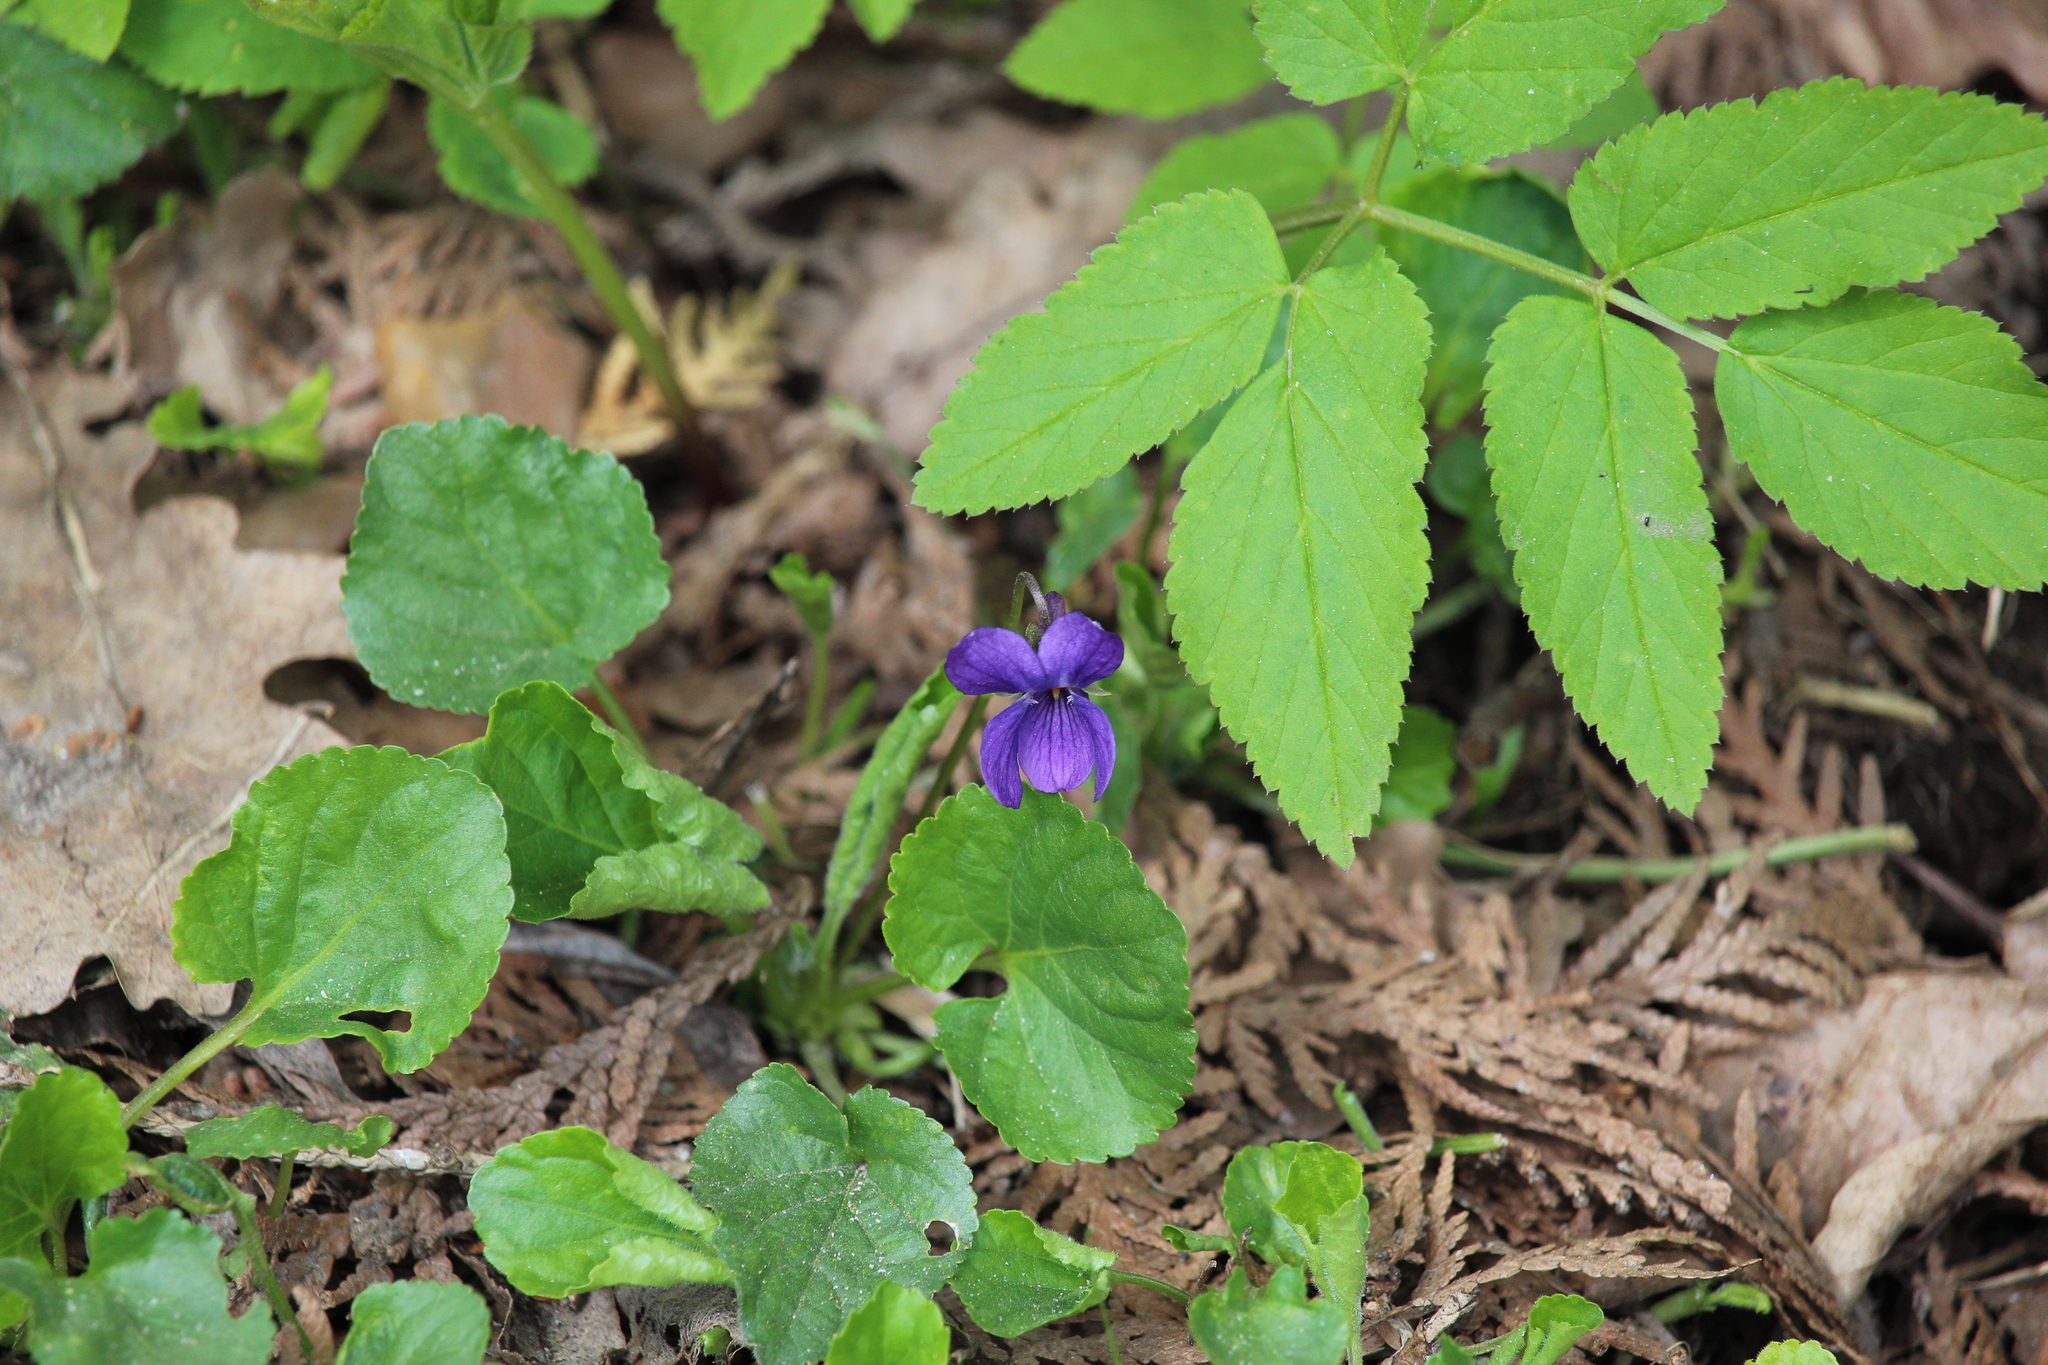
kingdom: Plantae
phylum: Tracheophyta
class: Magnoliopsida
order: Malpighiales
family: Violaceae
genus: Viola
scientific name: Viola odorata
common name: Sweet violet
